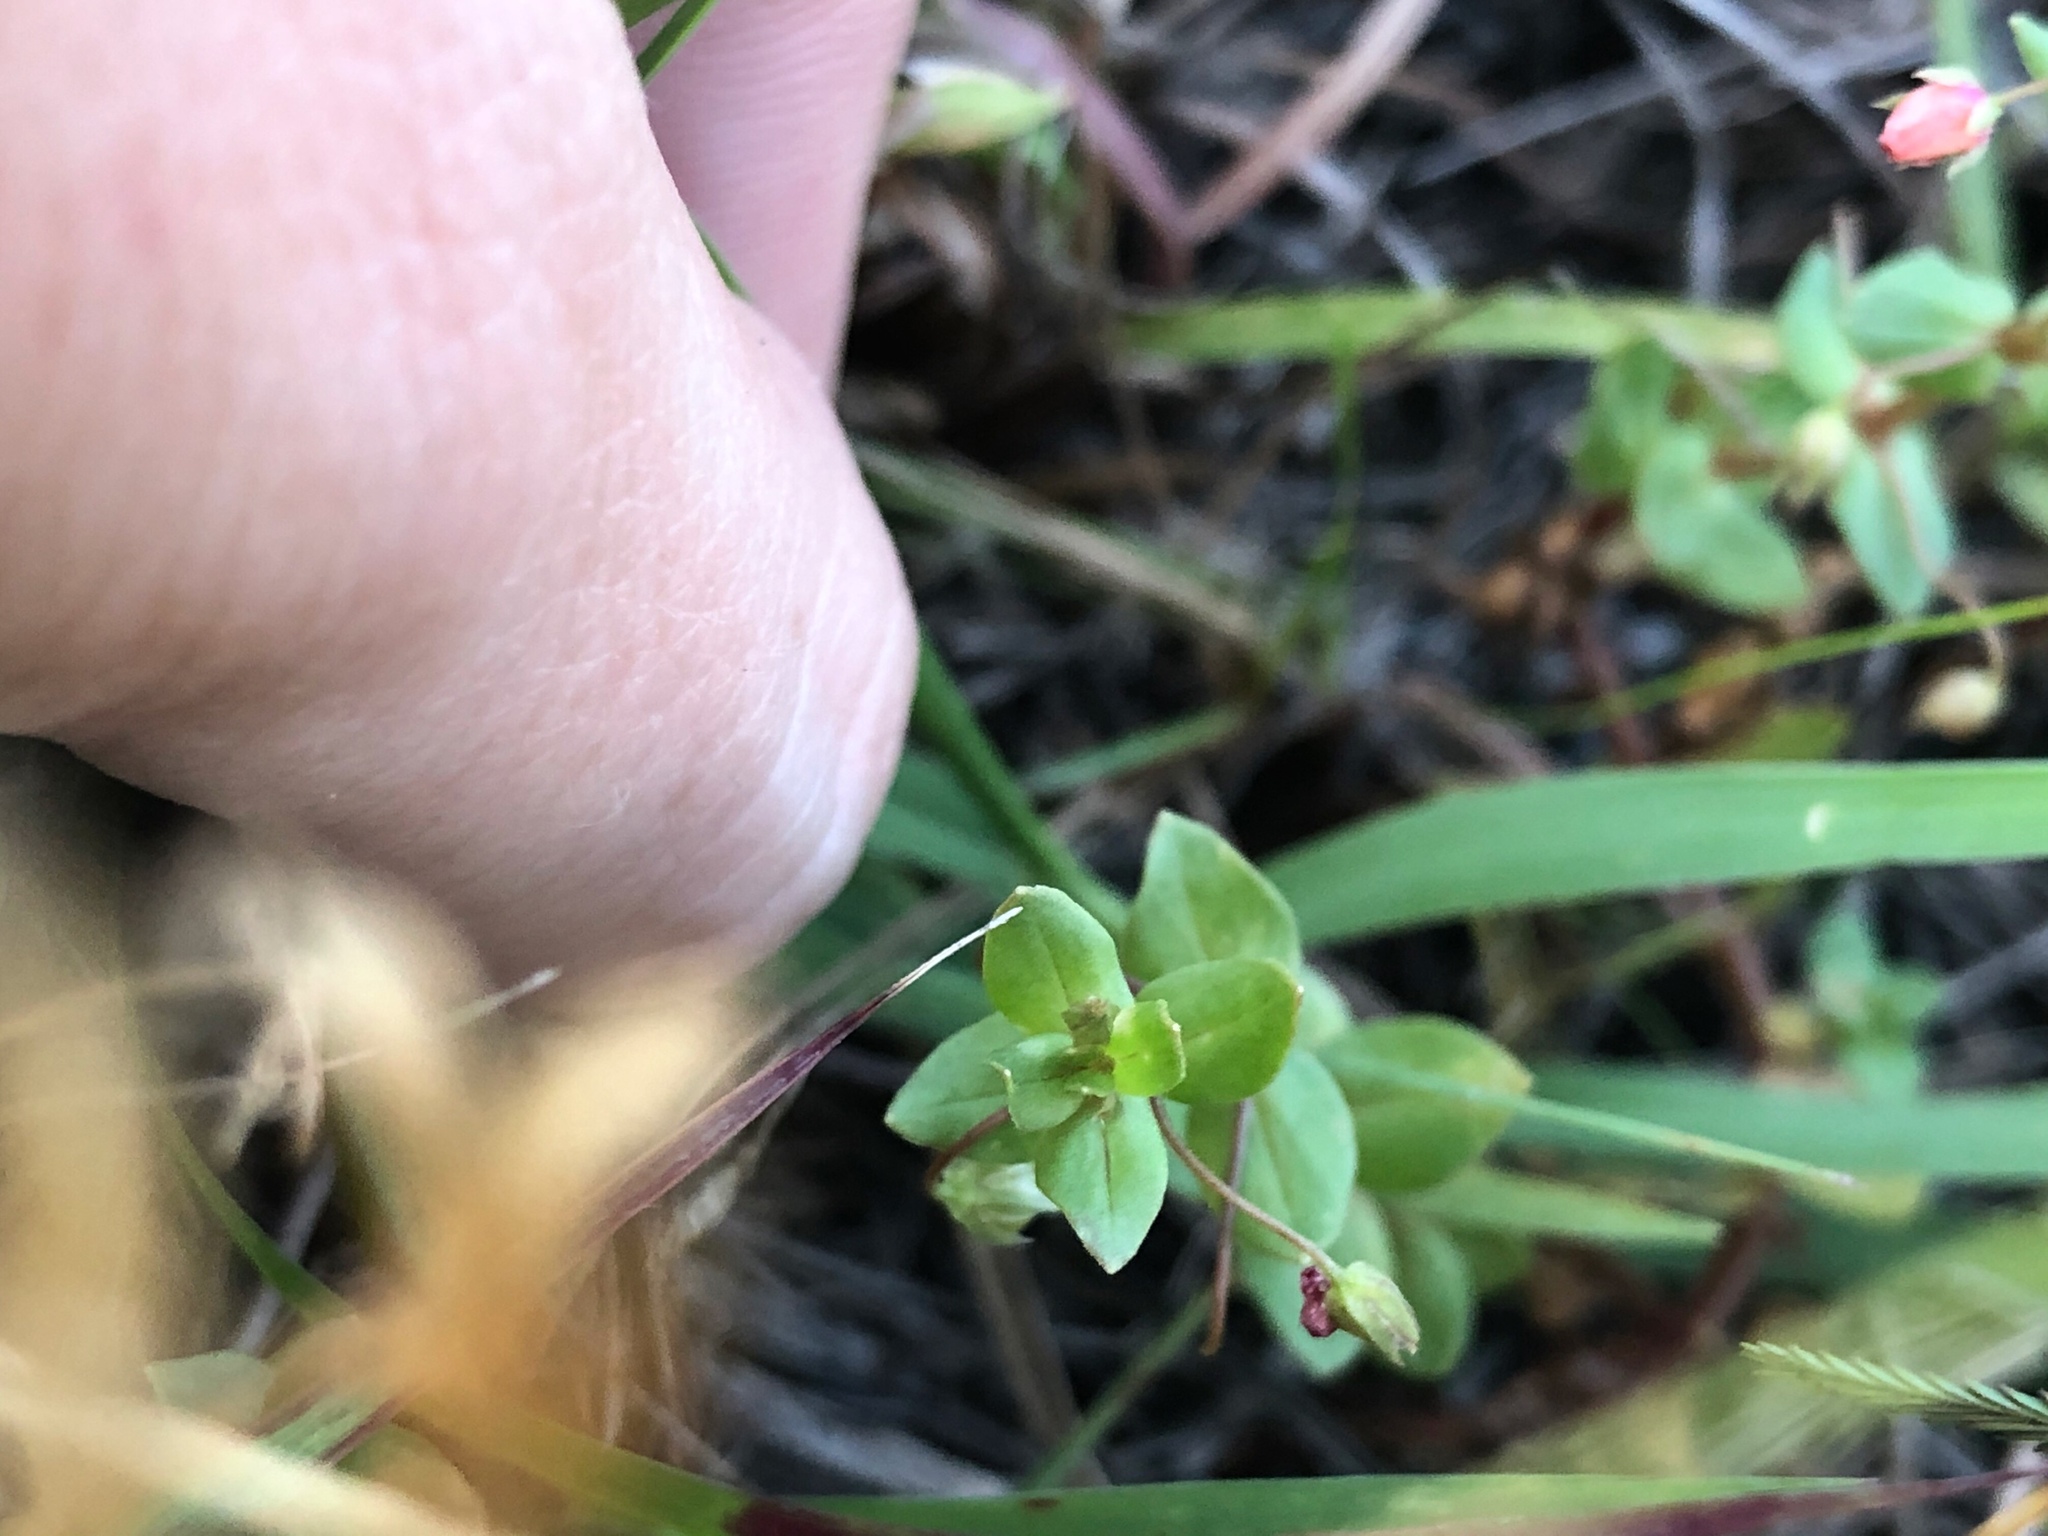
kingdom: Plantae
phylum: Tracheophyta
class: Magnoliopsida
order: Ericales
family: Primulaceae
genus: Lysimachia
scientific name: Lysimachia arvensis
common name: Scarlet pimpernel
